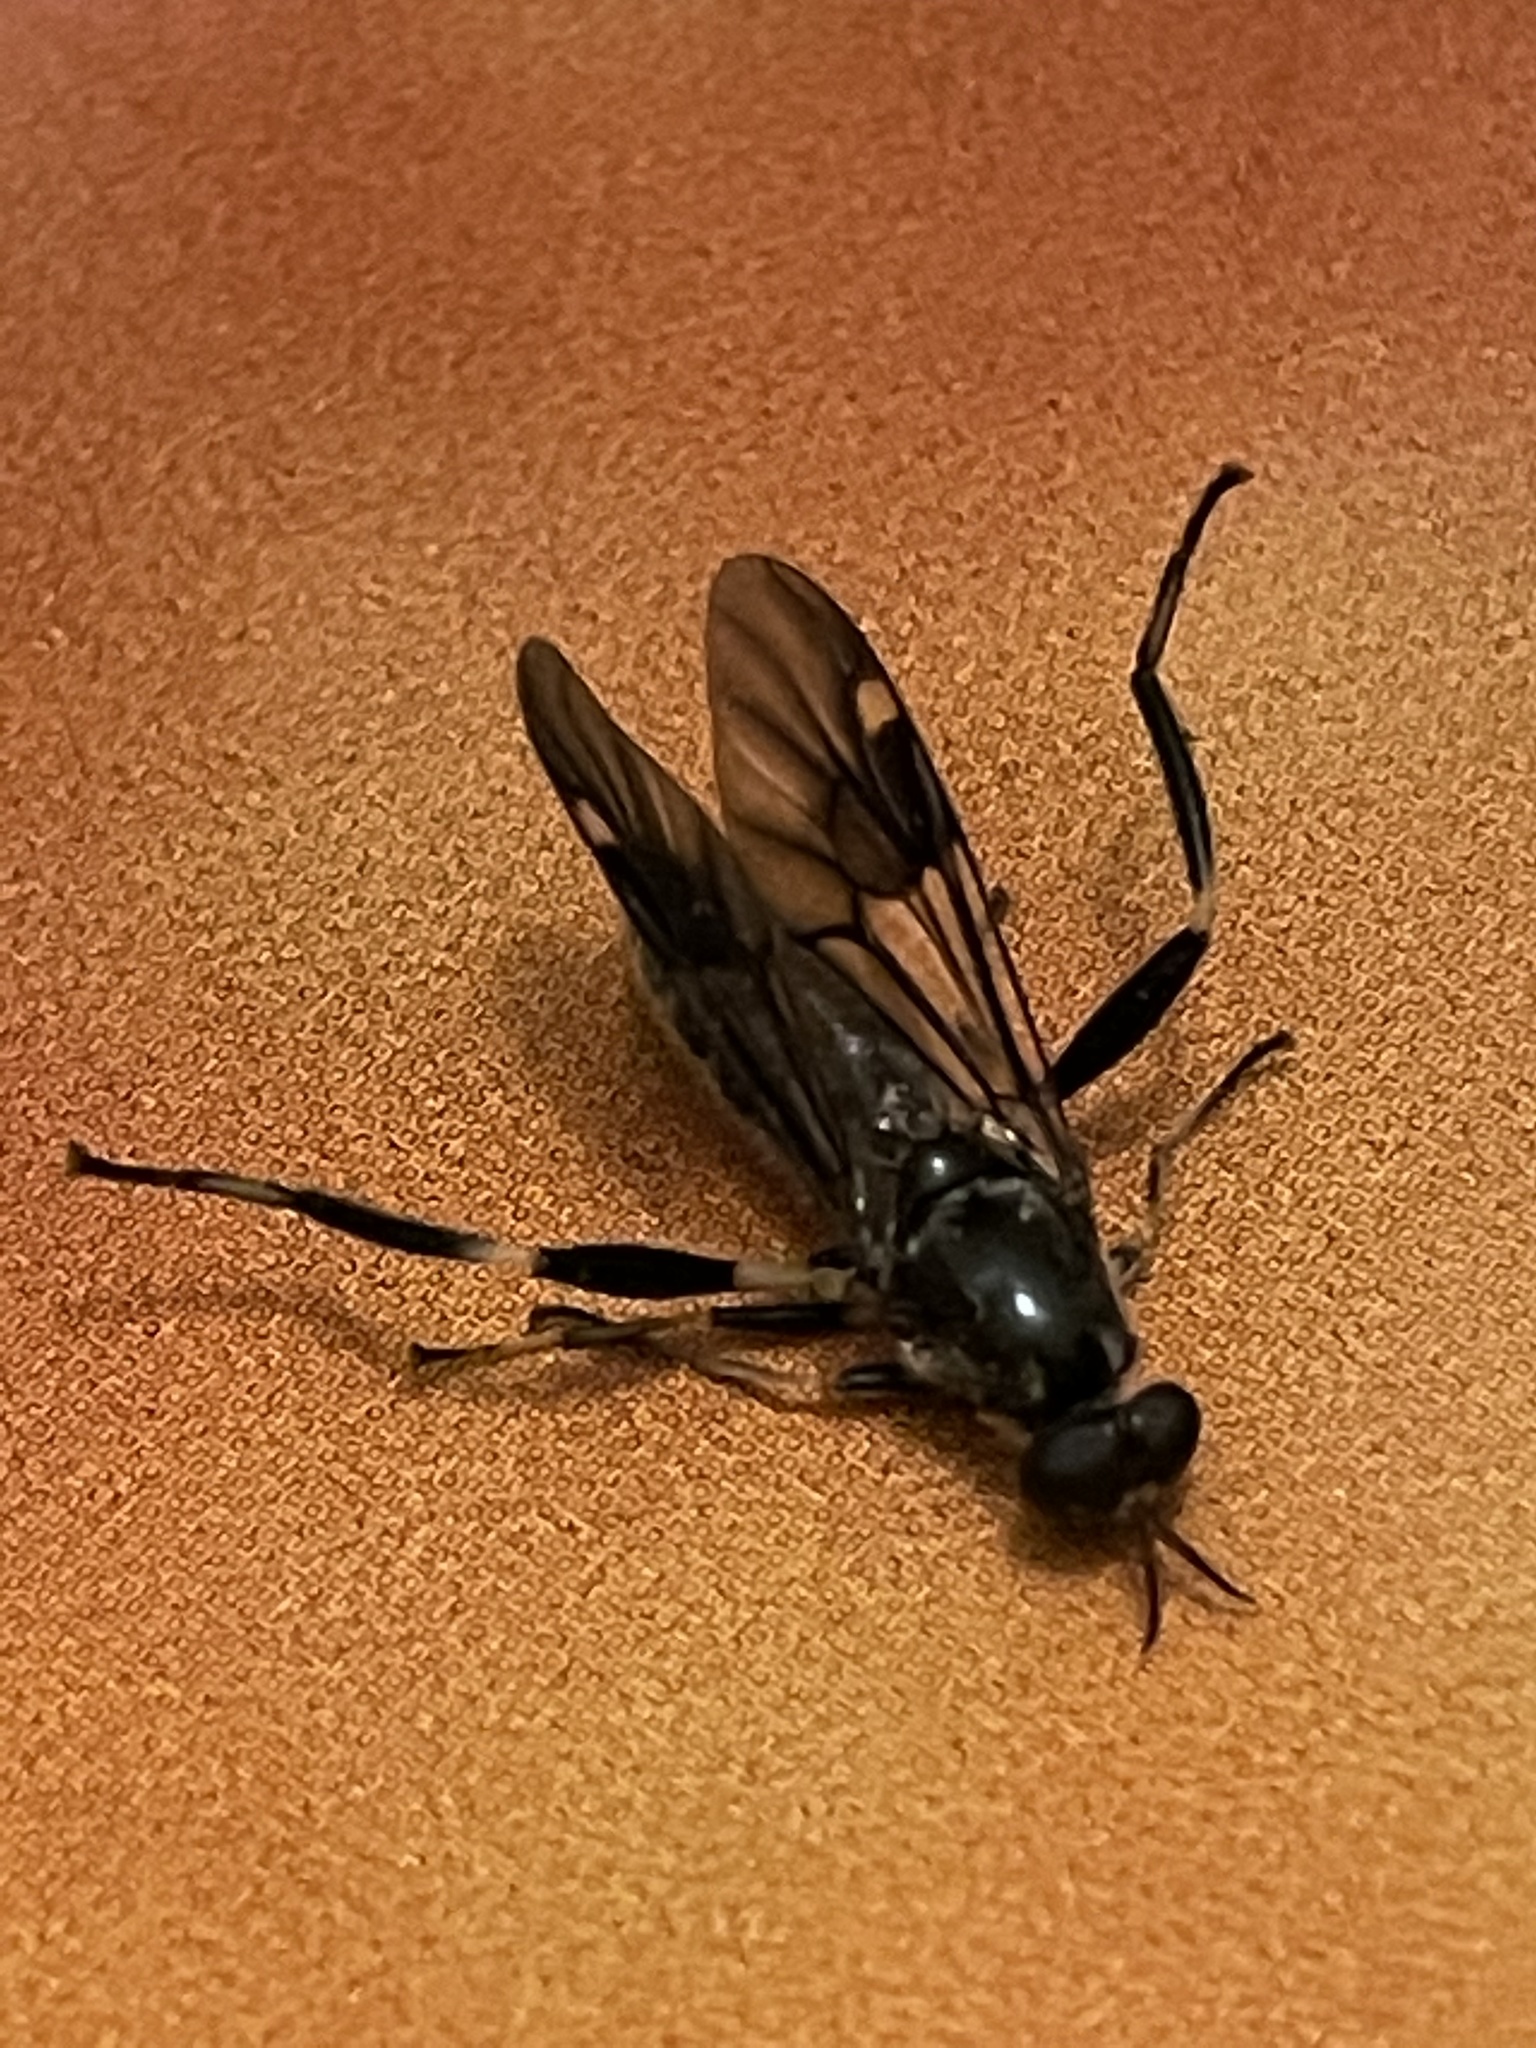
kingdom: Animalia
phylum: Arthropoda
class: Insecta
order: Diptera
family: Stratiomyidae
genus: Exaireta
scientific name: Exaireta spinigera
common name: Blue soldier fly
